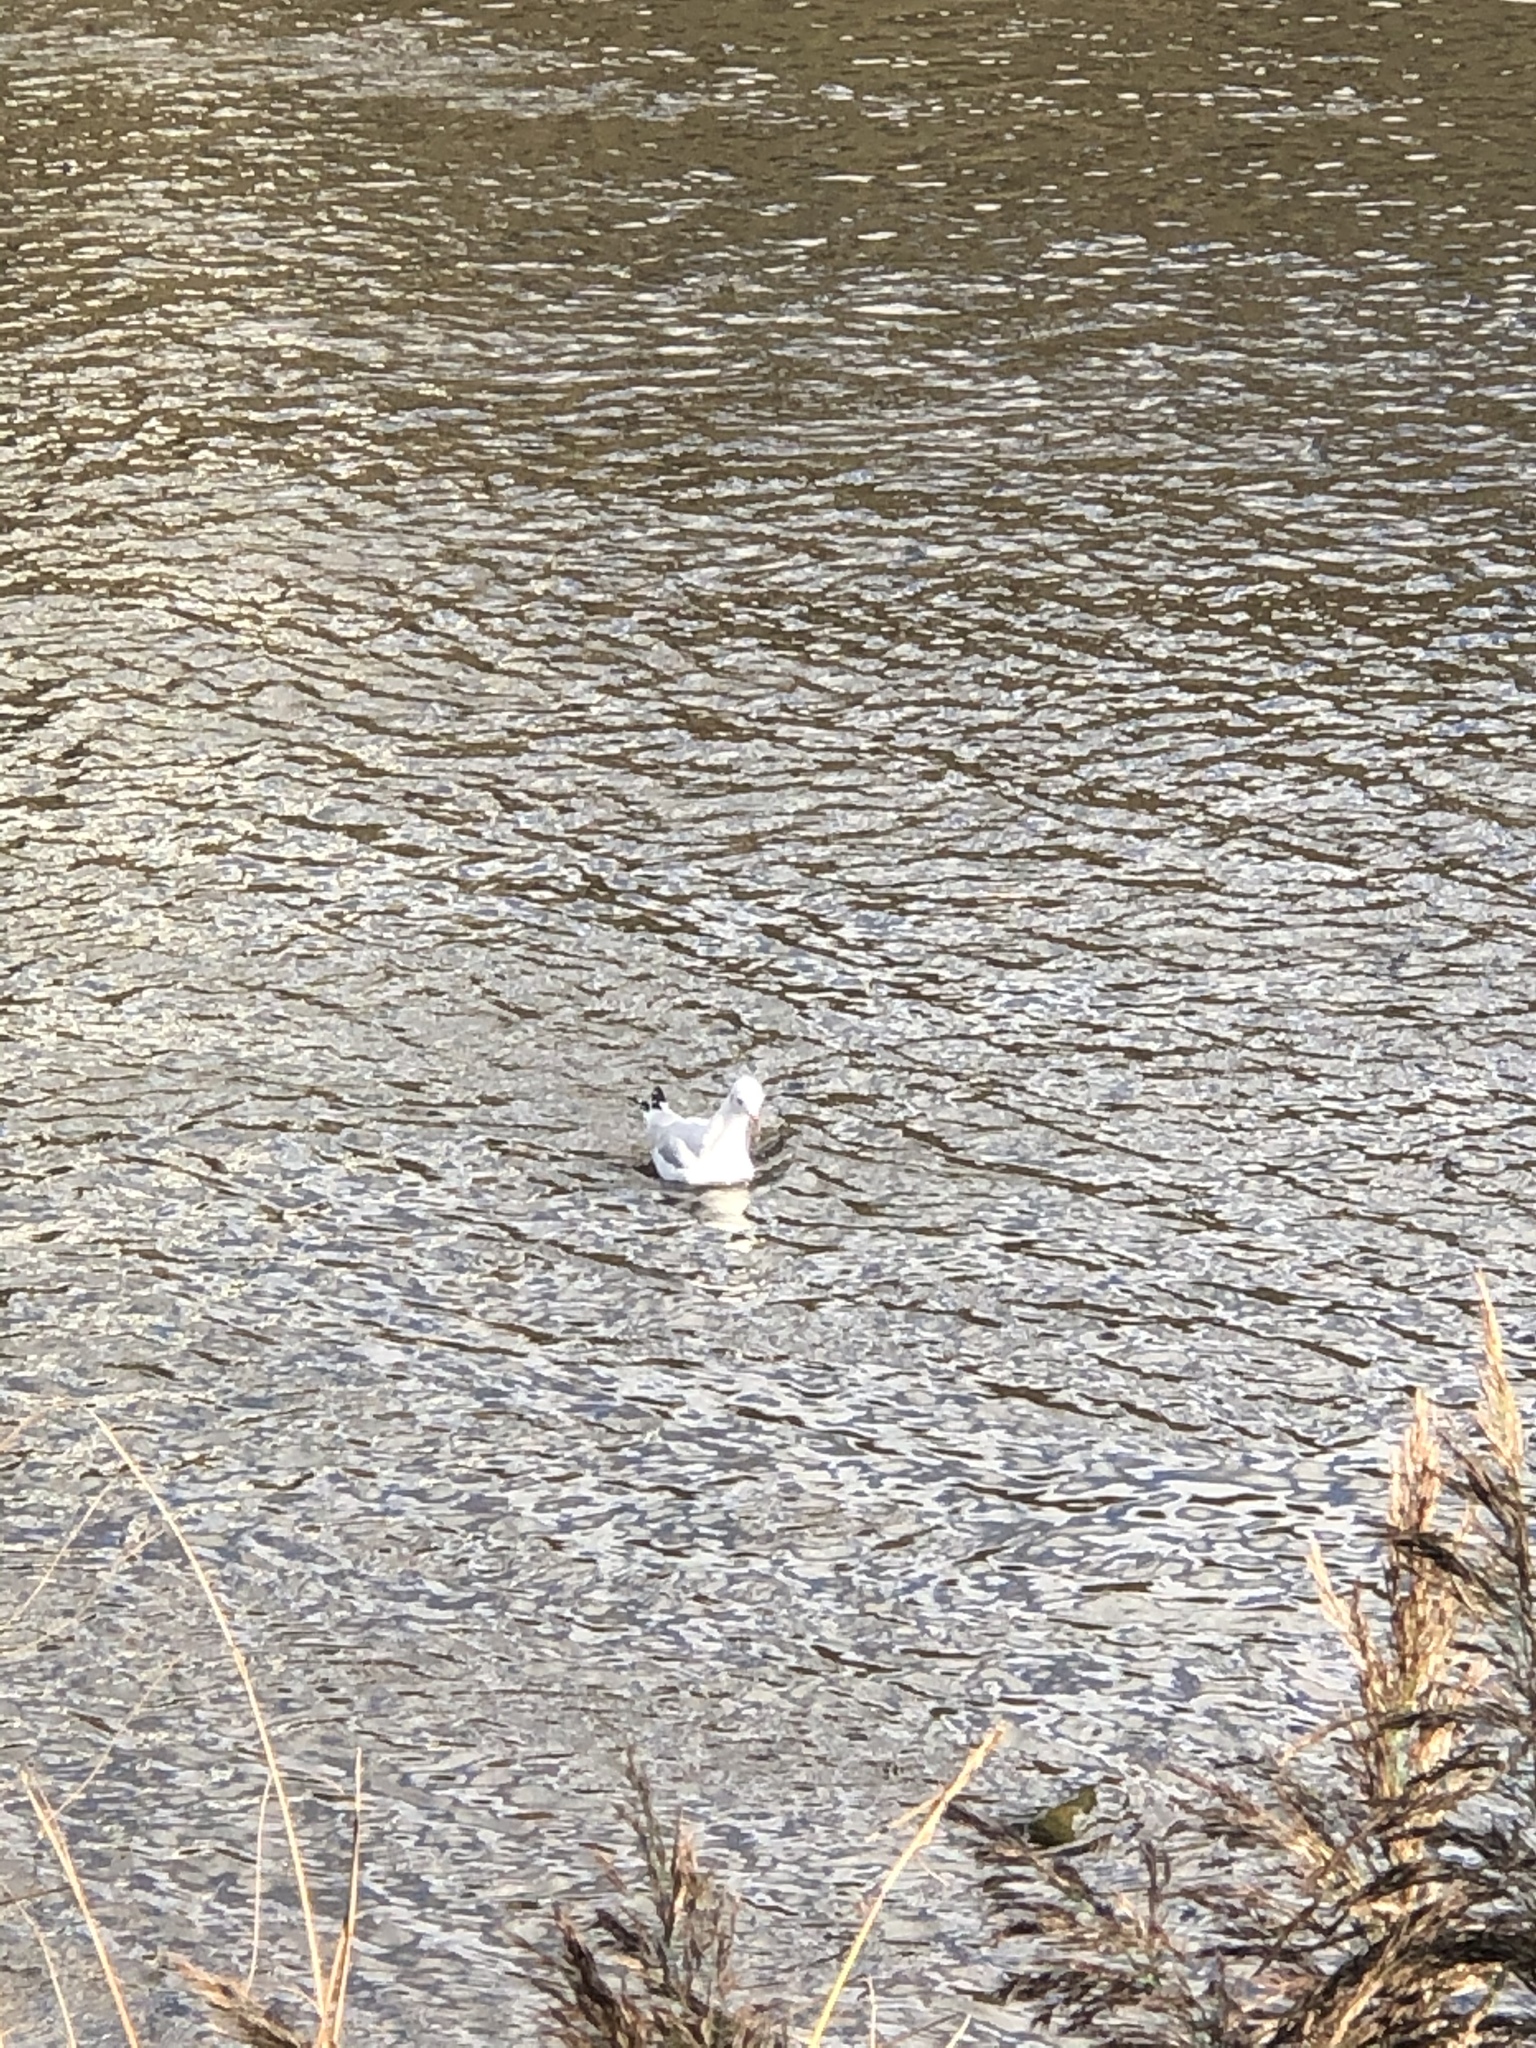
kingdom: Animalia
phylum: Chordata
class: Aves
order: Charadriiformes
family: Laridae
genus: Chroicocephalus
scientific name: Chroicocephalus ridibundus
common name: Black-headed gull
